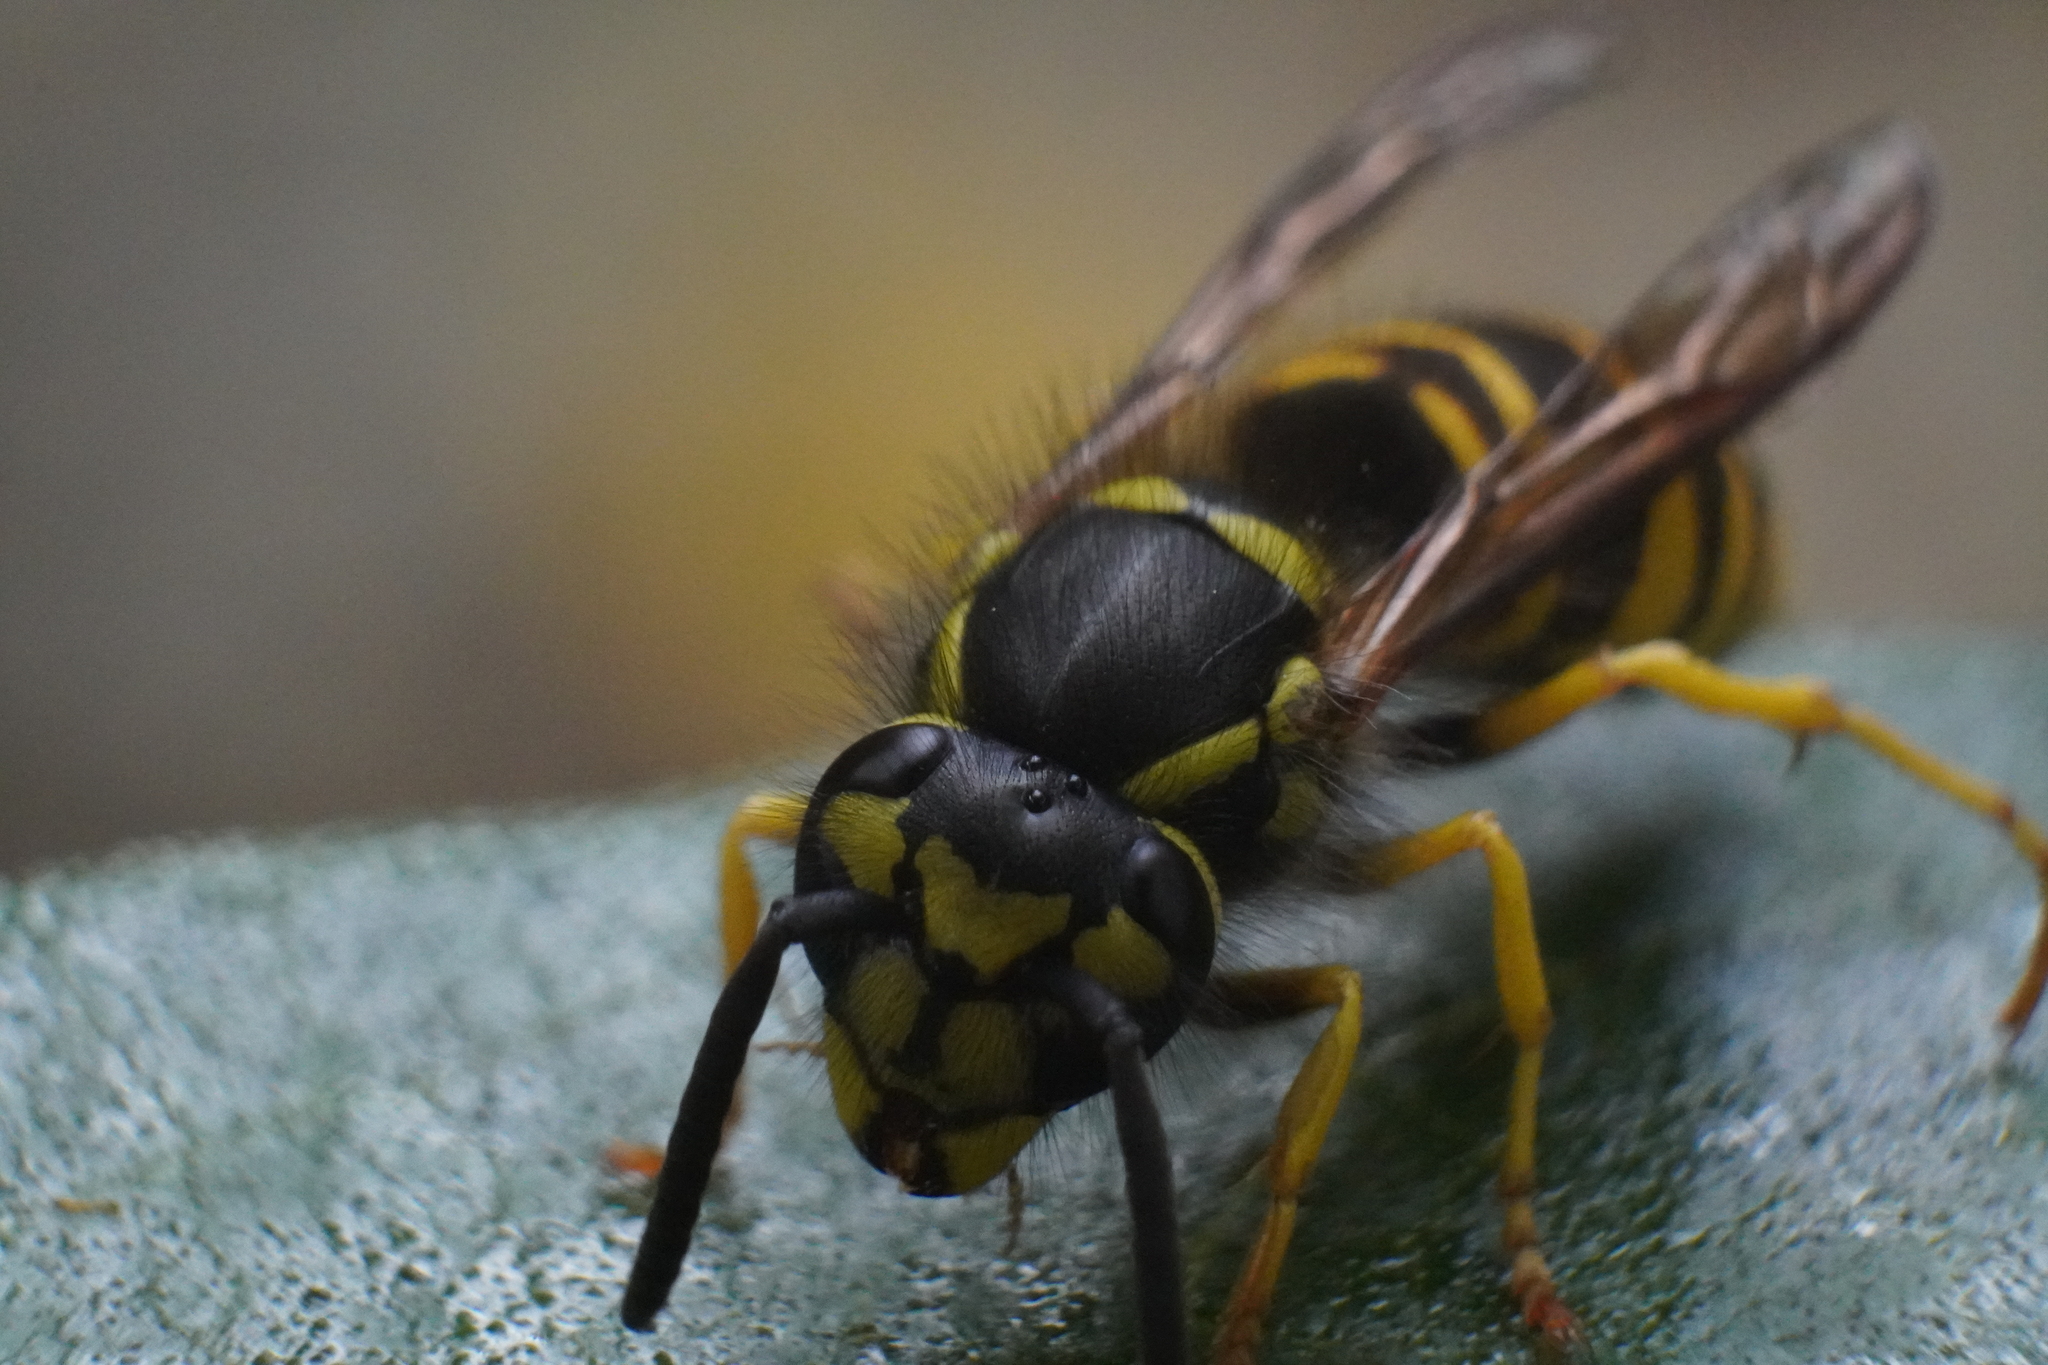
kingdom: Animalia
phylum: Arthropoda
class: Insecta
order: Hymenoptera
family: Vespidae
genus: Vespula
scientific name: Vespula maculifrons
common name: Eastern yellowjacket
